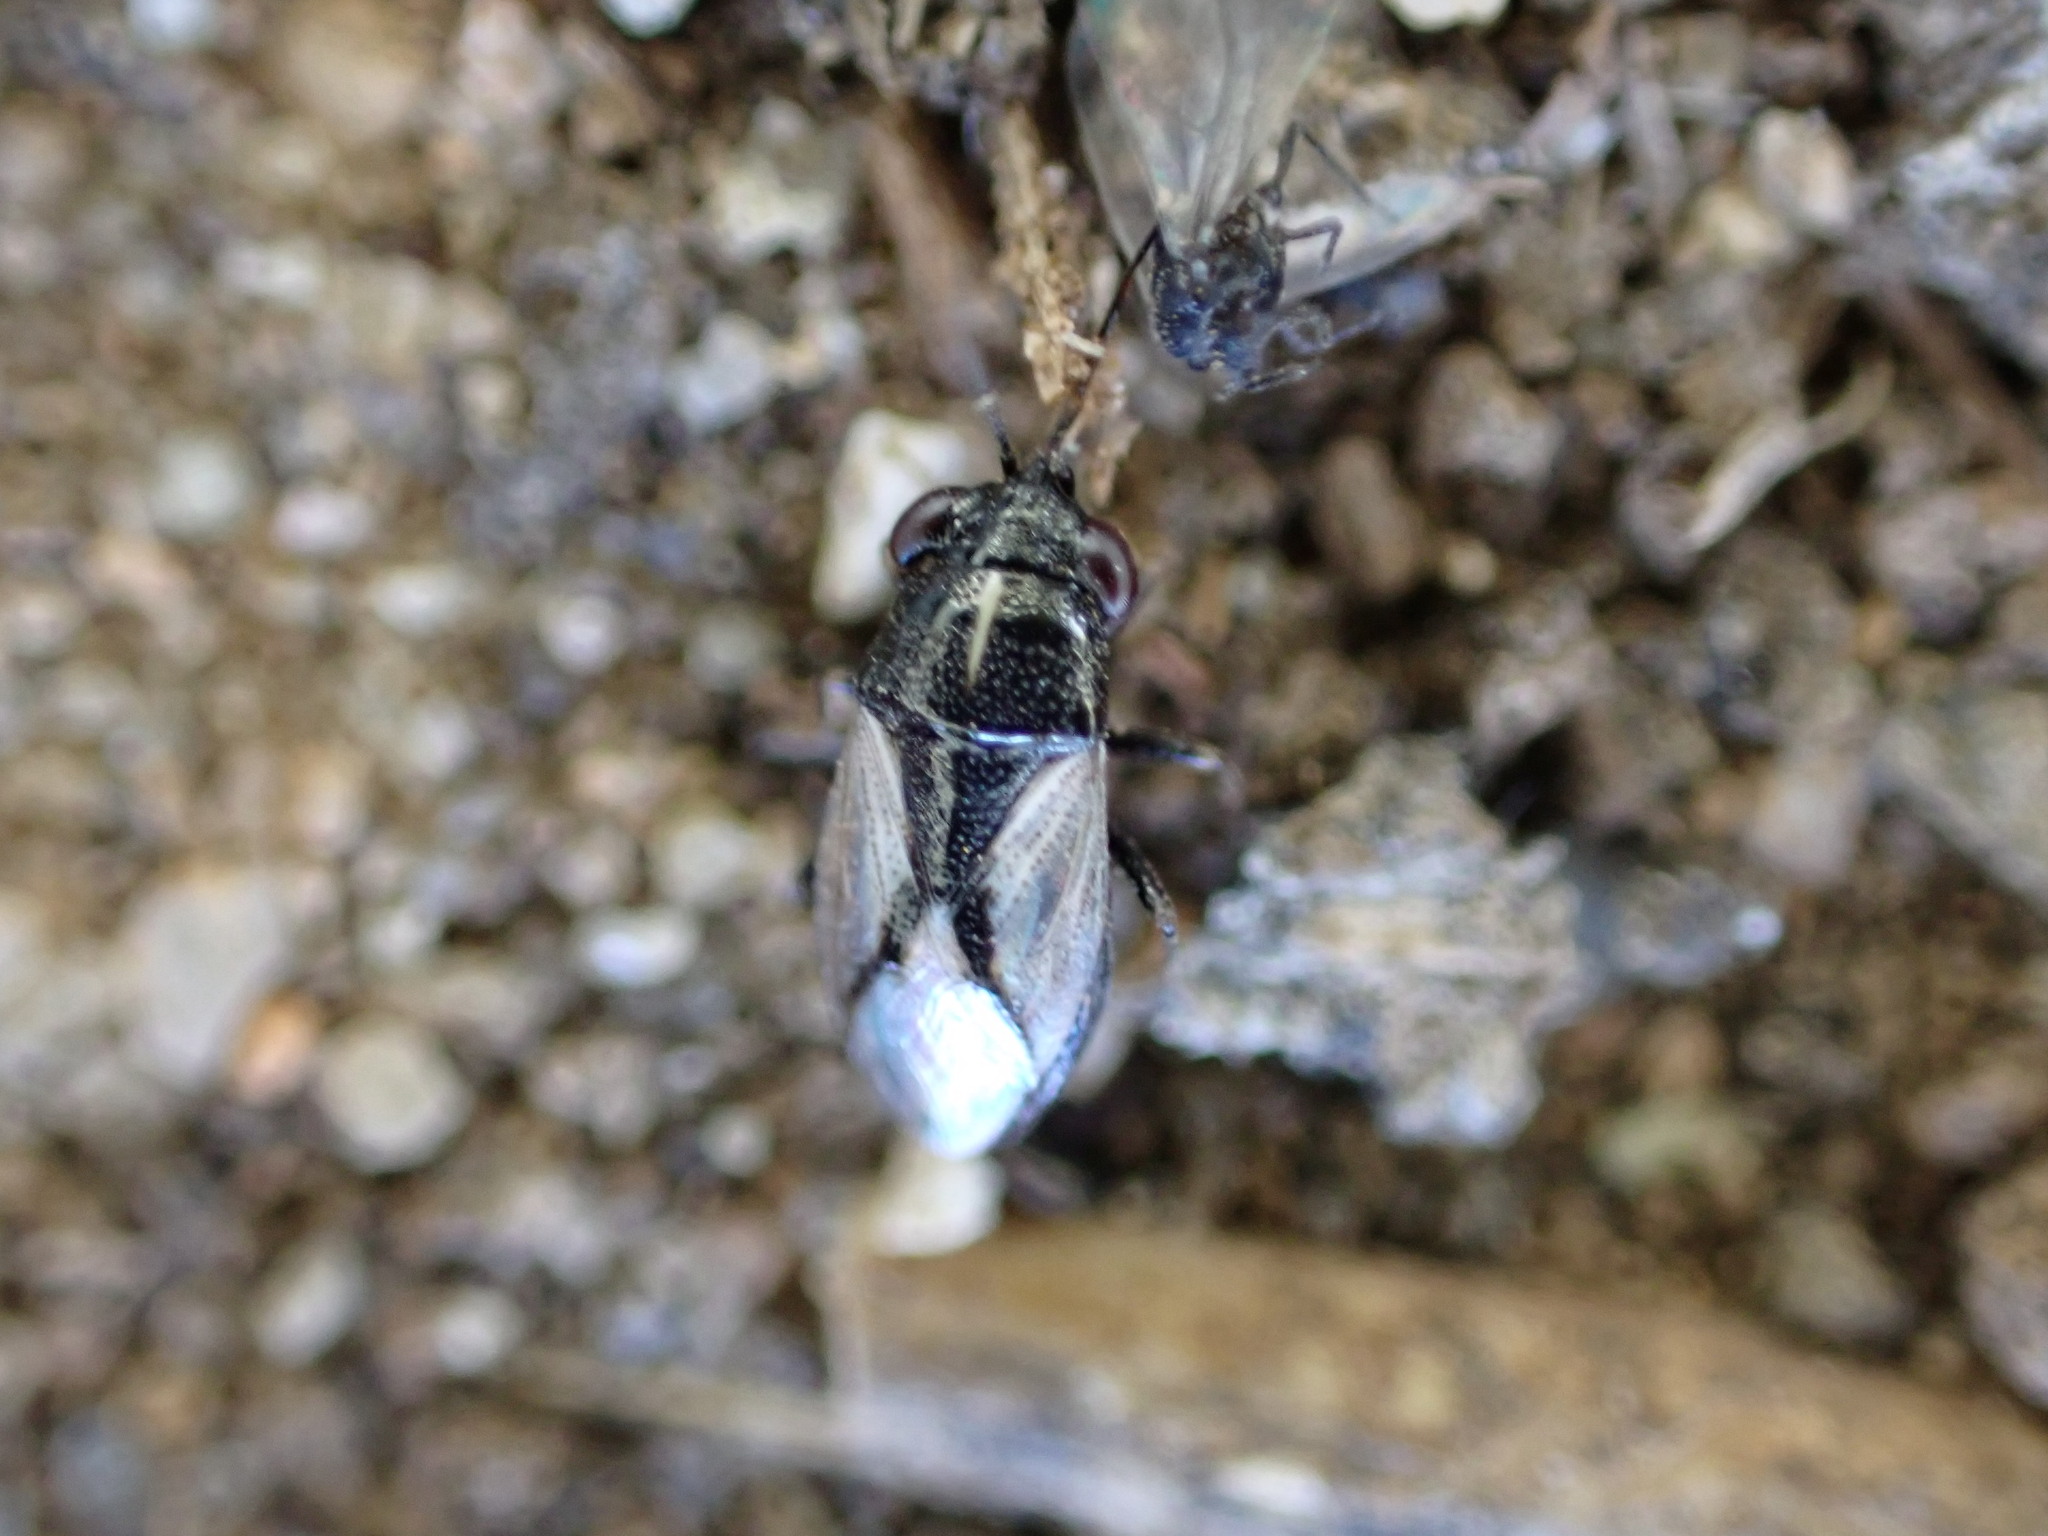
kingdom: Animalia
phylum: Arthropoda
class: Insecta
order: Hemiptera
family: Geocoridae
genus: Geocoris
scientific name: Geocoris lineolus
